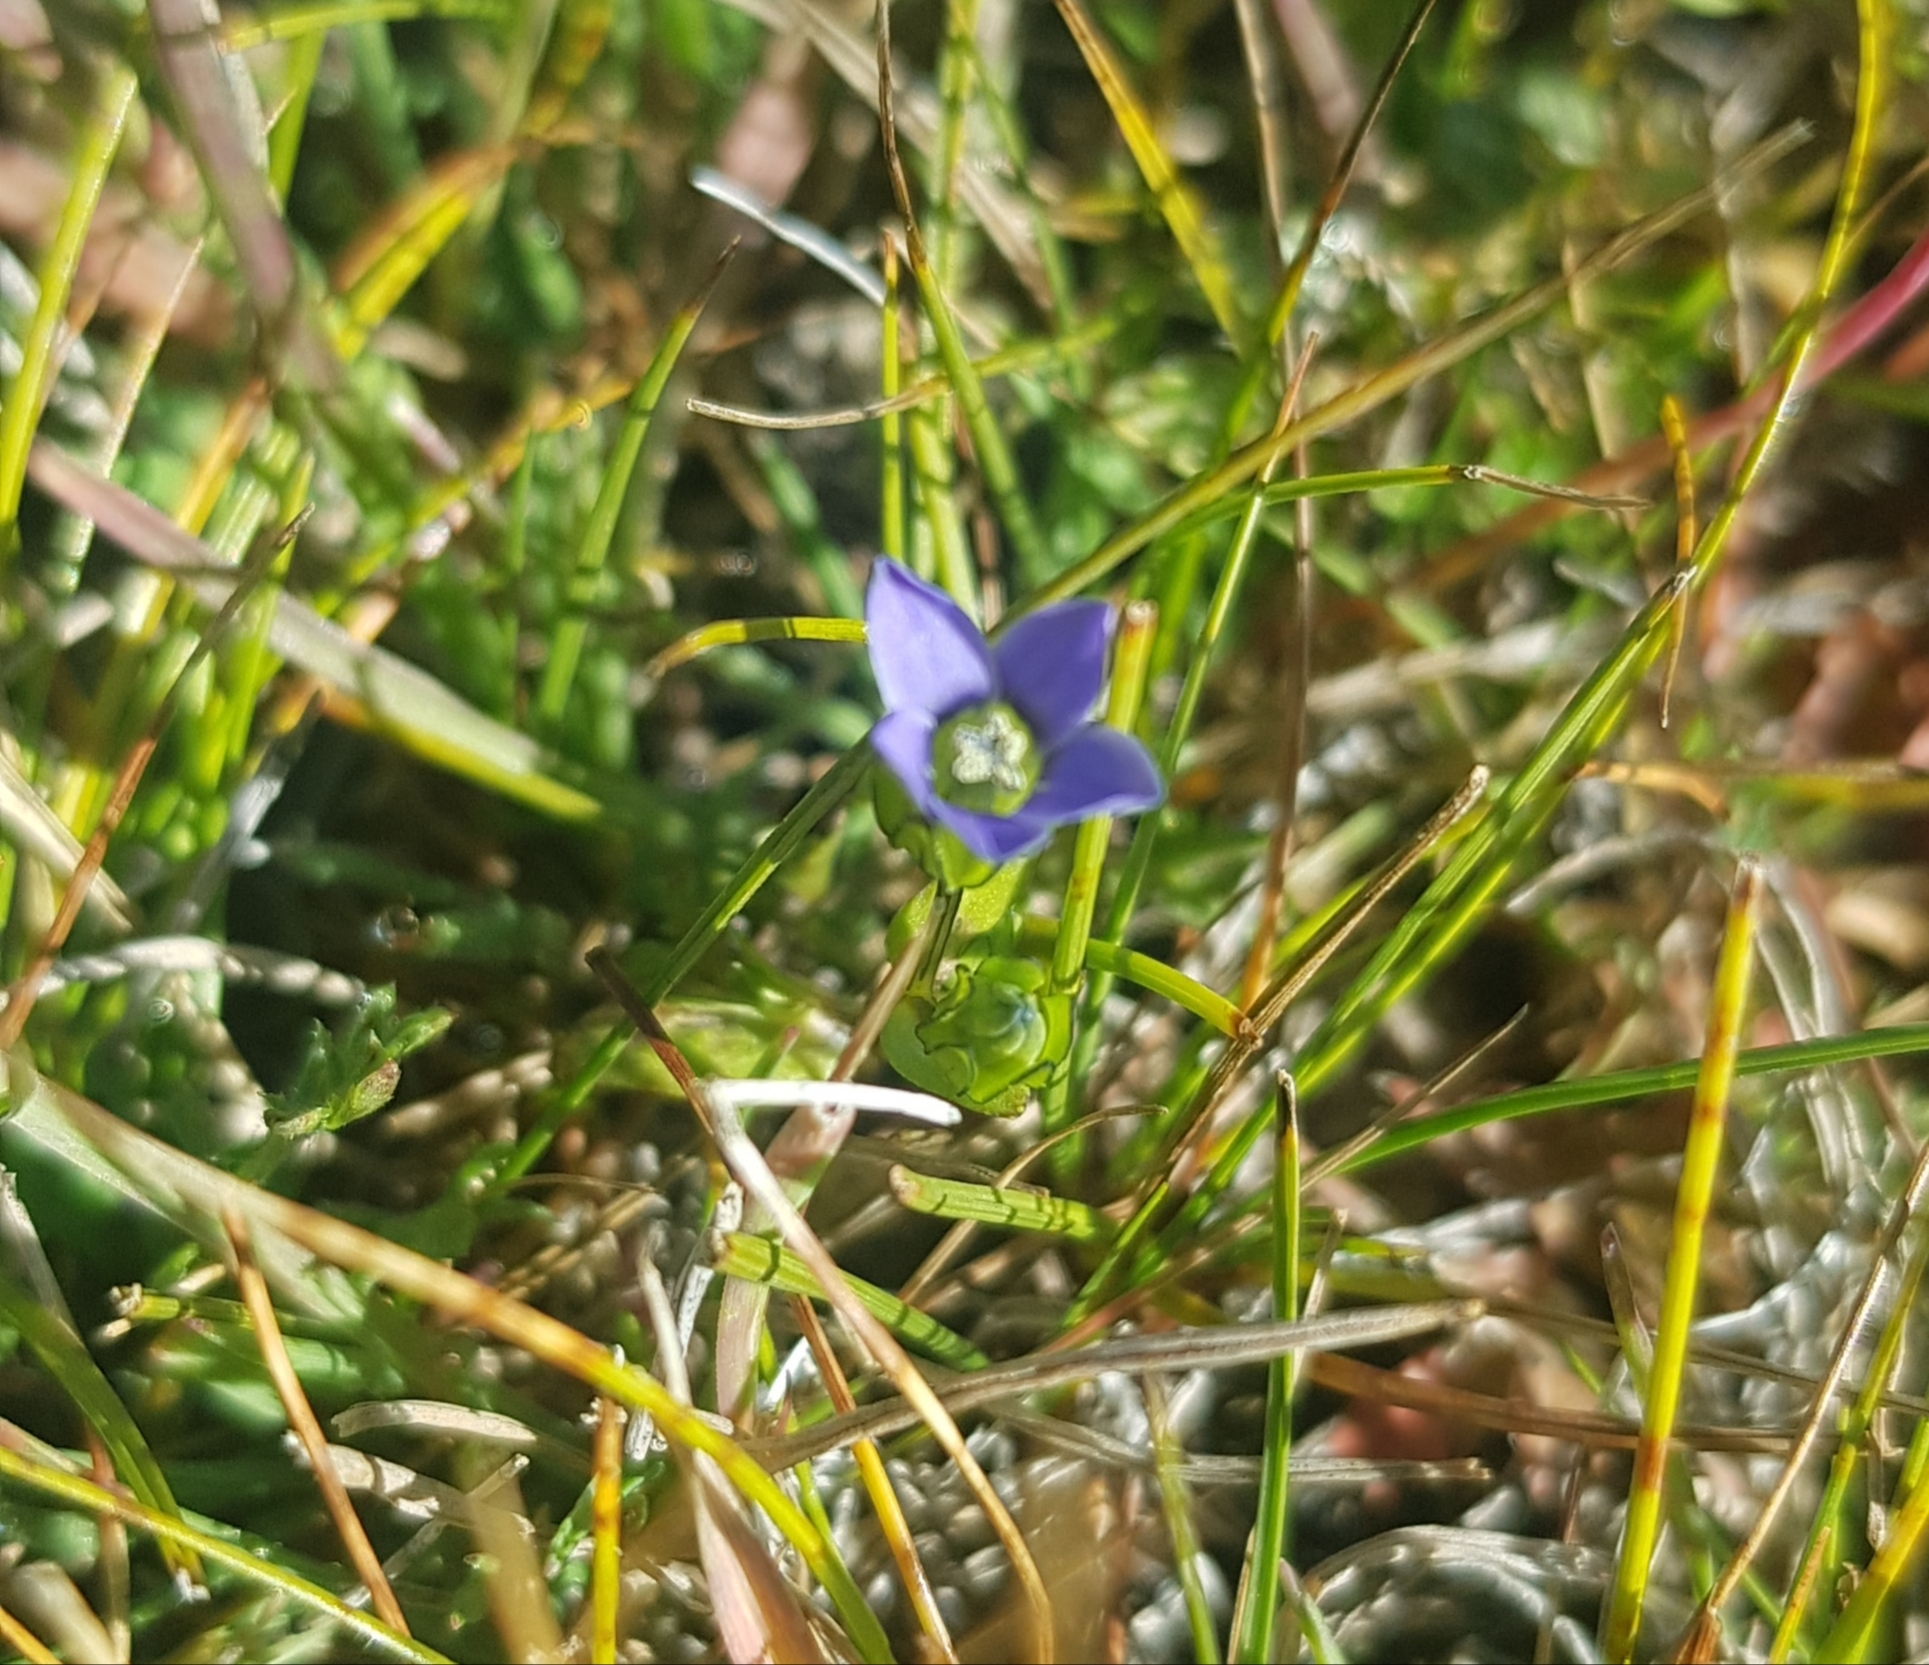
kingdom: Plantae
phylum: Tracheophyta
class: Magnoliopsida
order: Gentianales
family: Gentianaceae
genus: Comastoma
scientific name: Comastoma tenellum
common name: Dane's dwarf gentian
